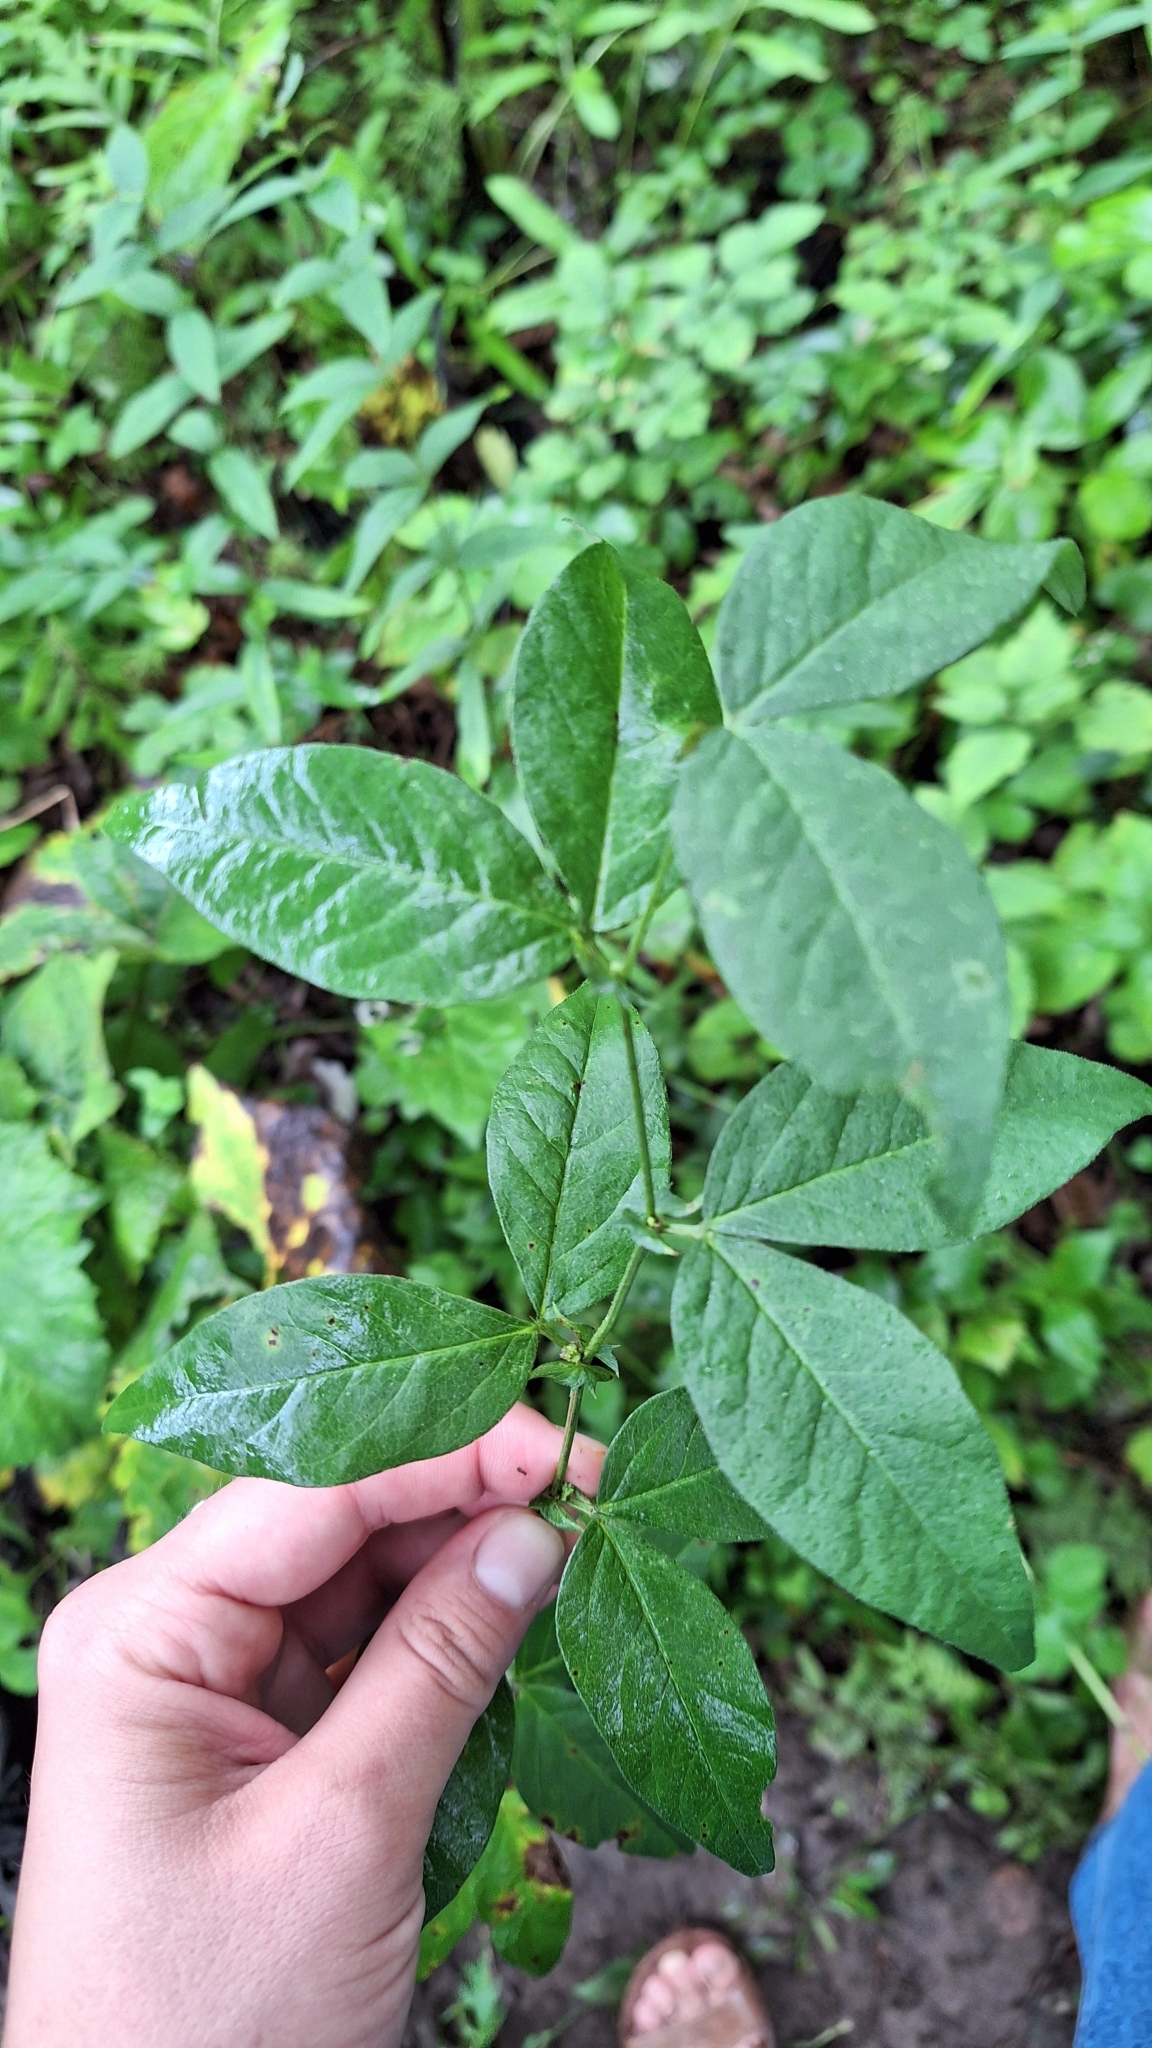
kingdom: Plantae
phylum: Tracheophyta
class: Magnoliopsida
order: Fabales
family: Fabaceae
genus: Vicia
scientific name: Vicia unijuga
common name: Two-leaf vetch
